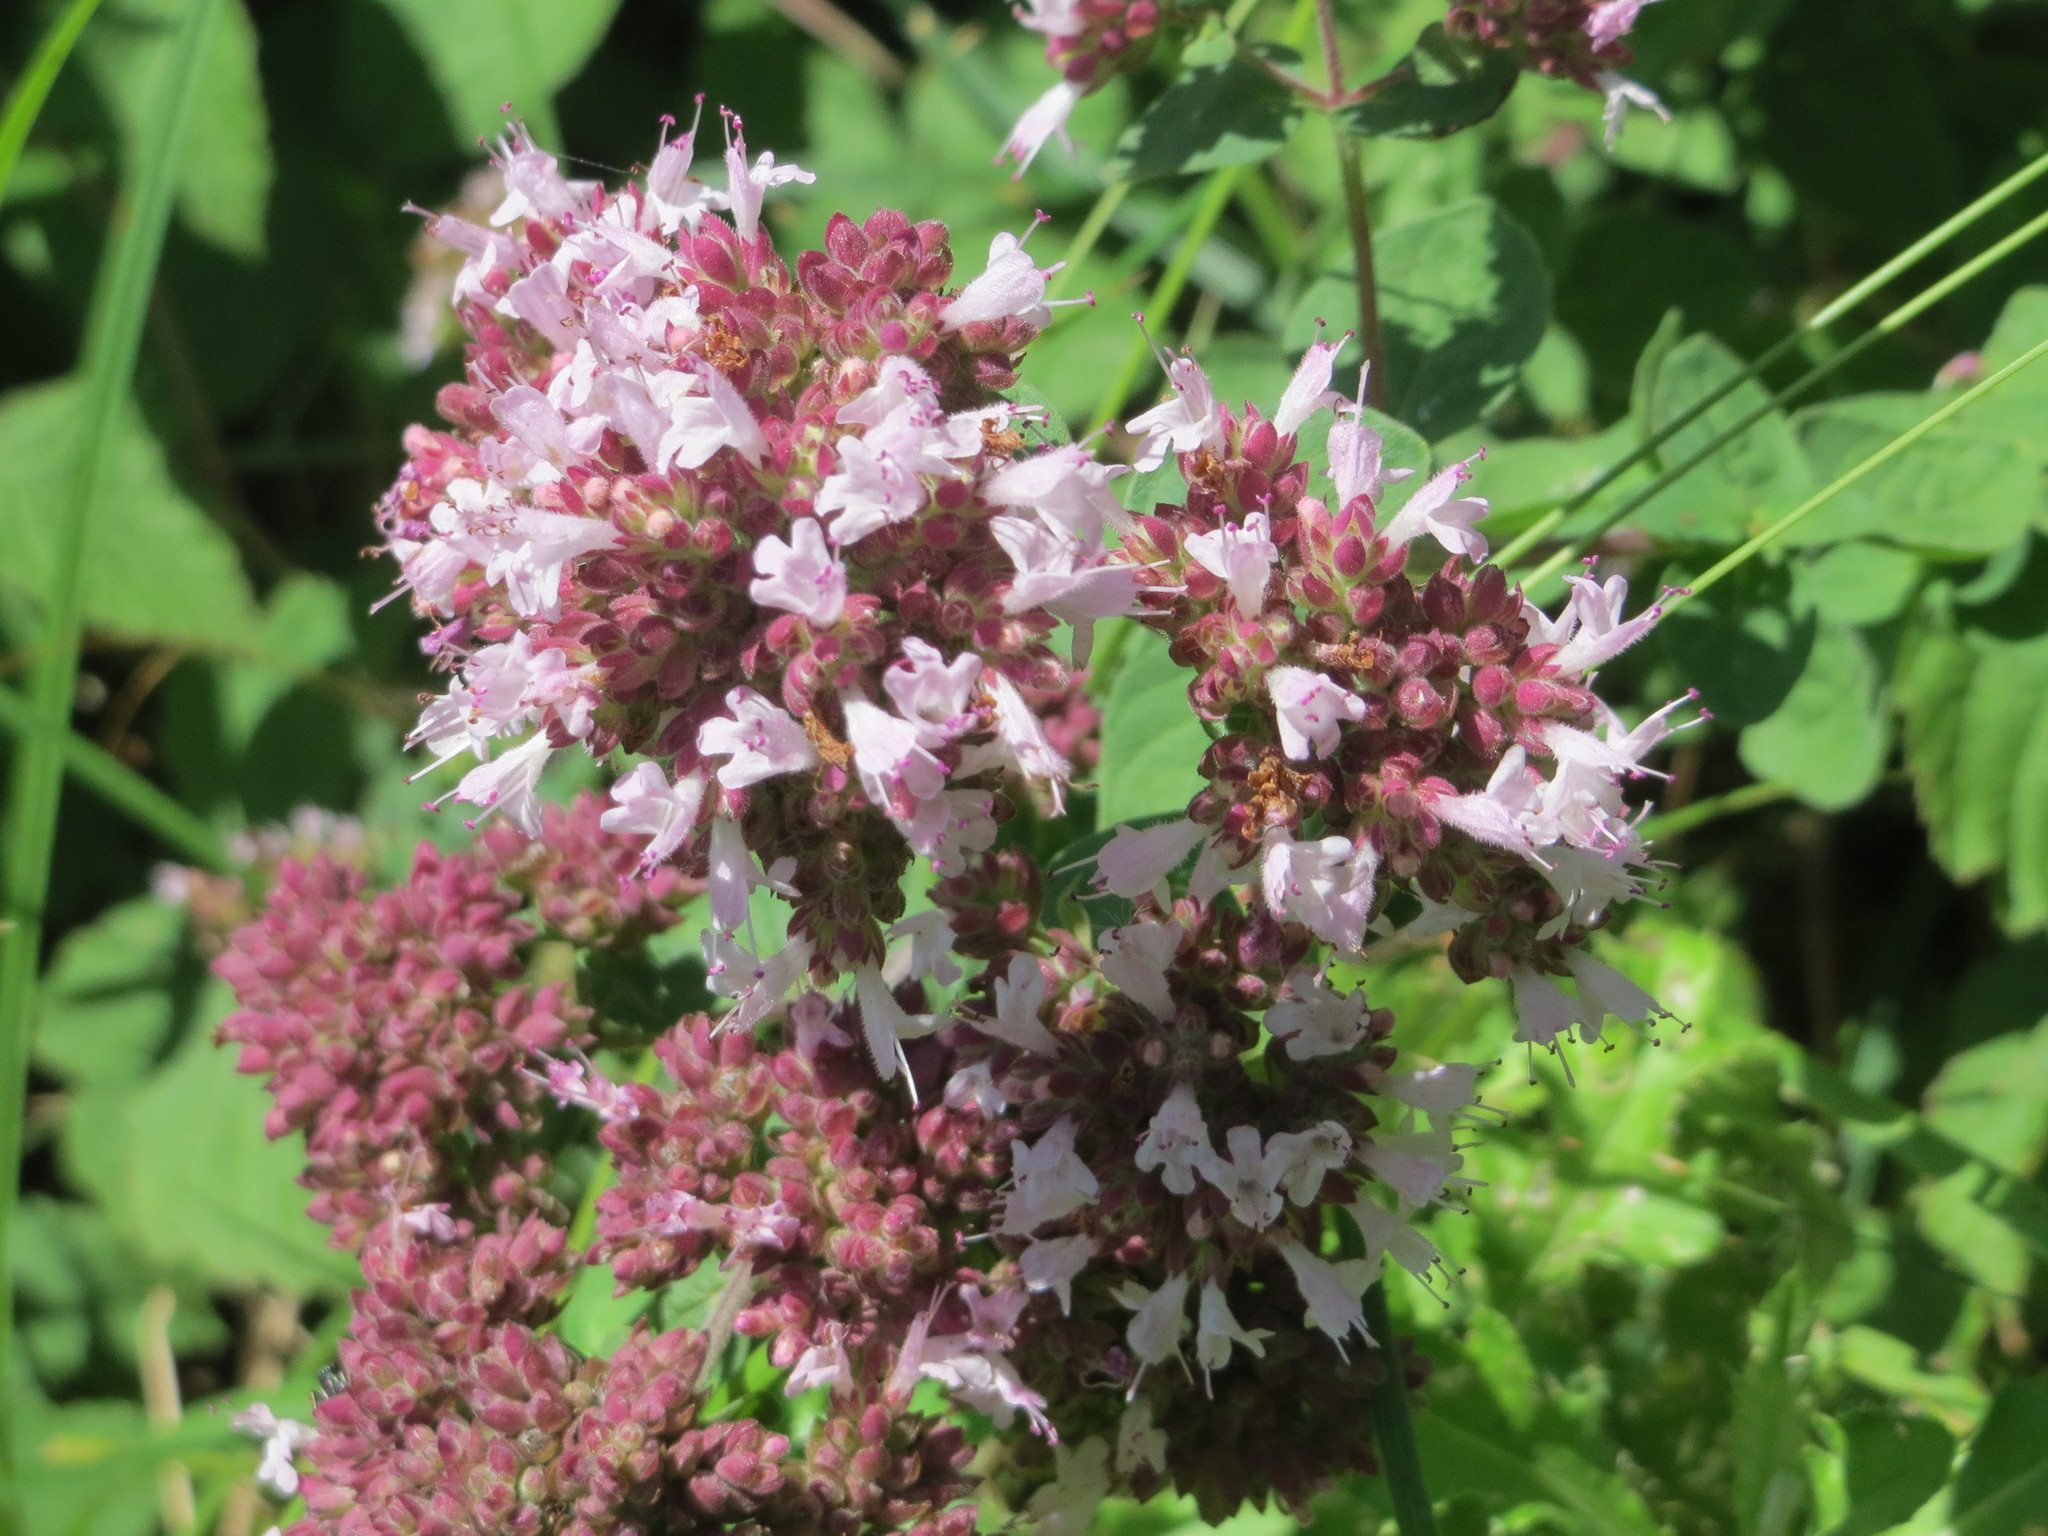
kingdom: Plantae
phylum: Tracheophyta
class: Magnoliopsida
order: Lamiales
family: Lamiaceae
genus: Origanum
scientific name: Origanum vulgare
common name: Wild marjoram
